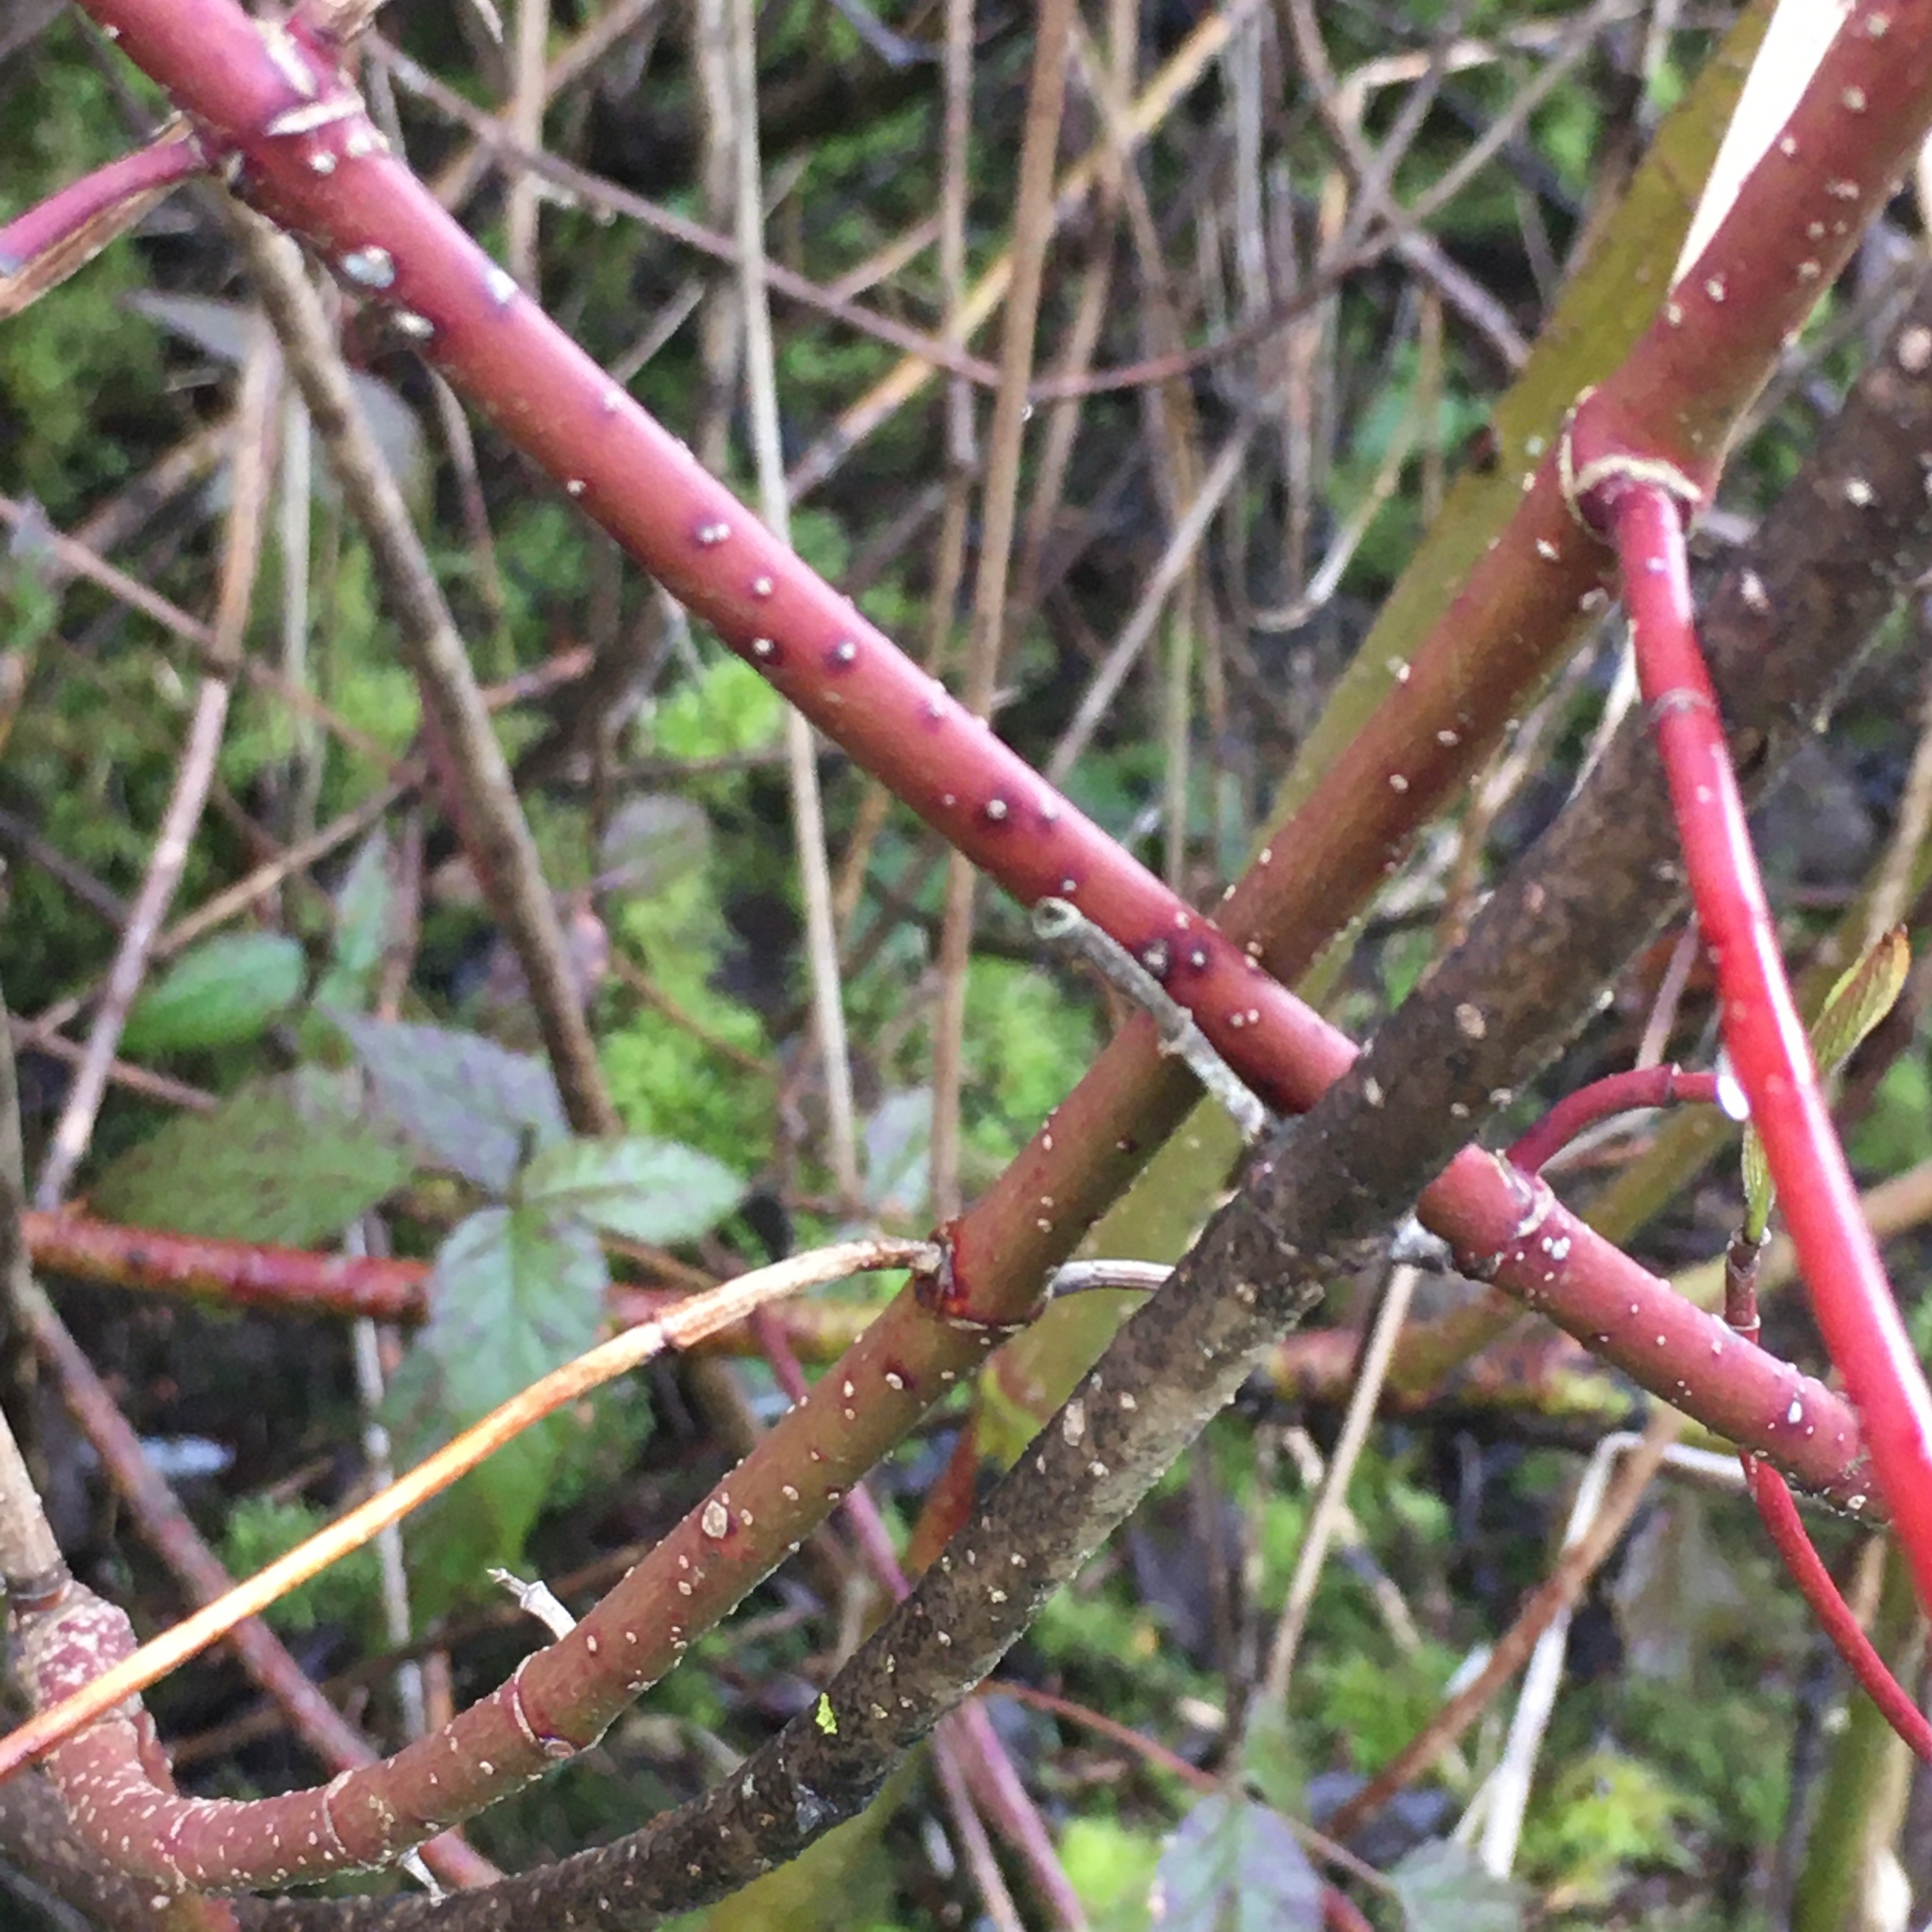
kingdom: Plantae
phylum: Tracheophyta
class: Magnoliopsida
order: Cornales
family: Cornaceae
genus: Cornus
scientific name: Cornus sericea
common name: Red-osier dogwood
